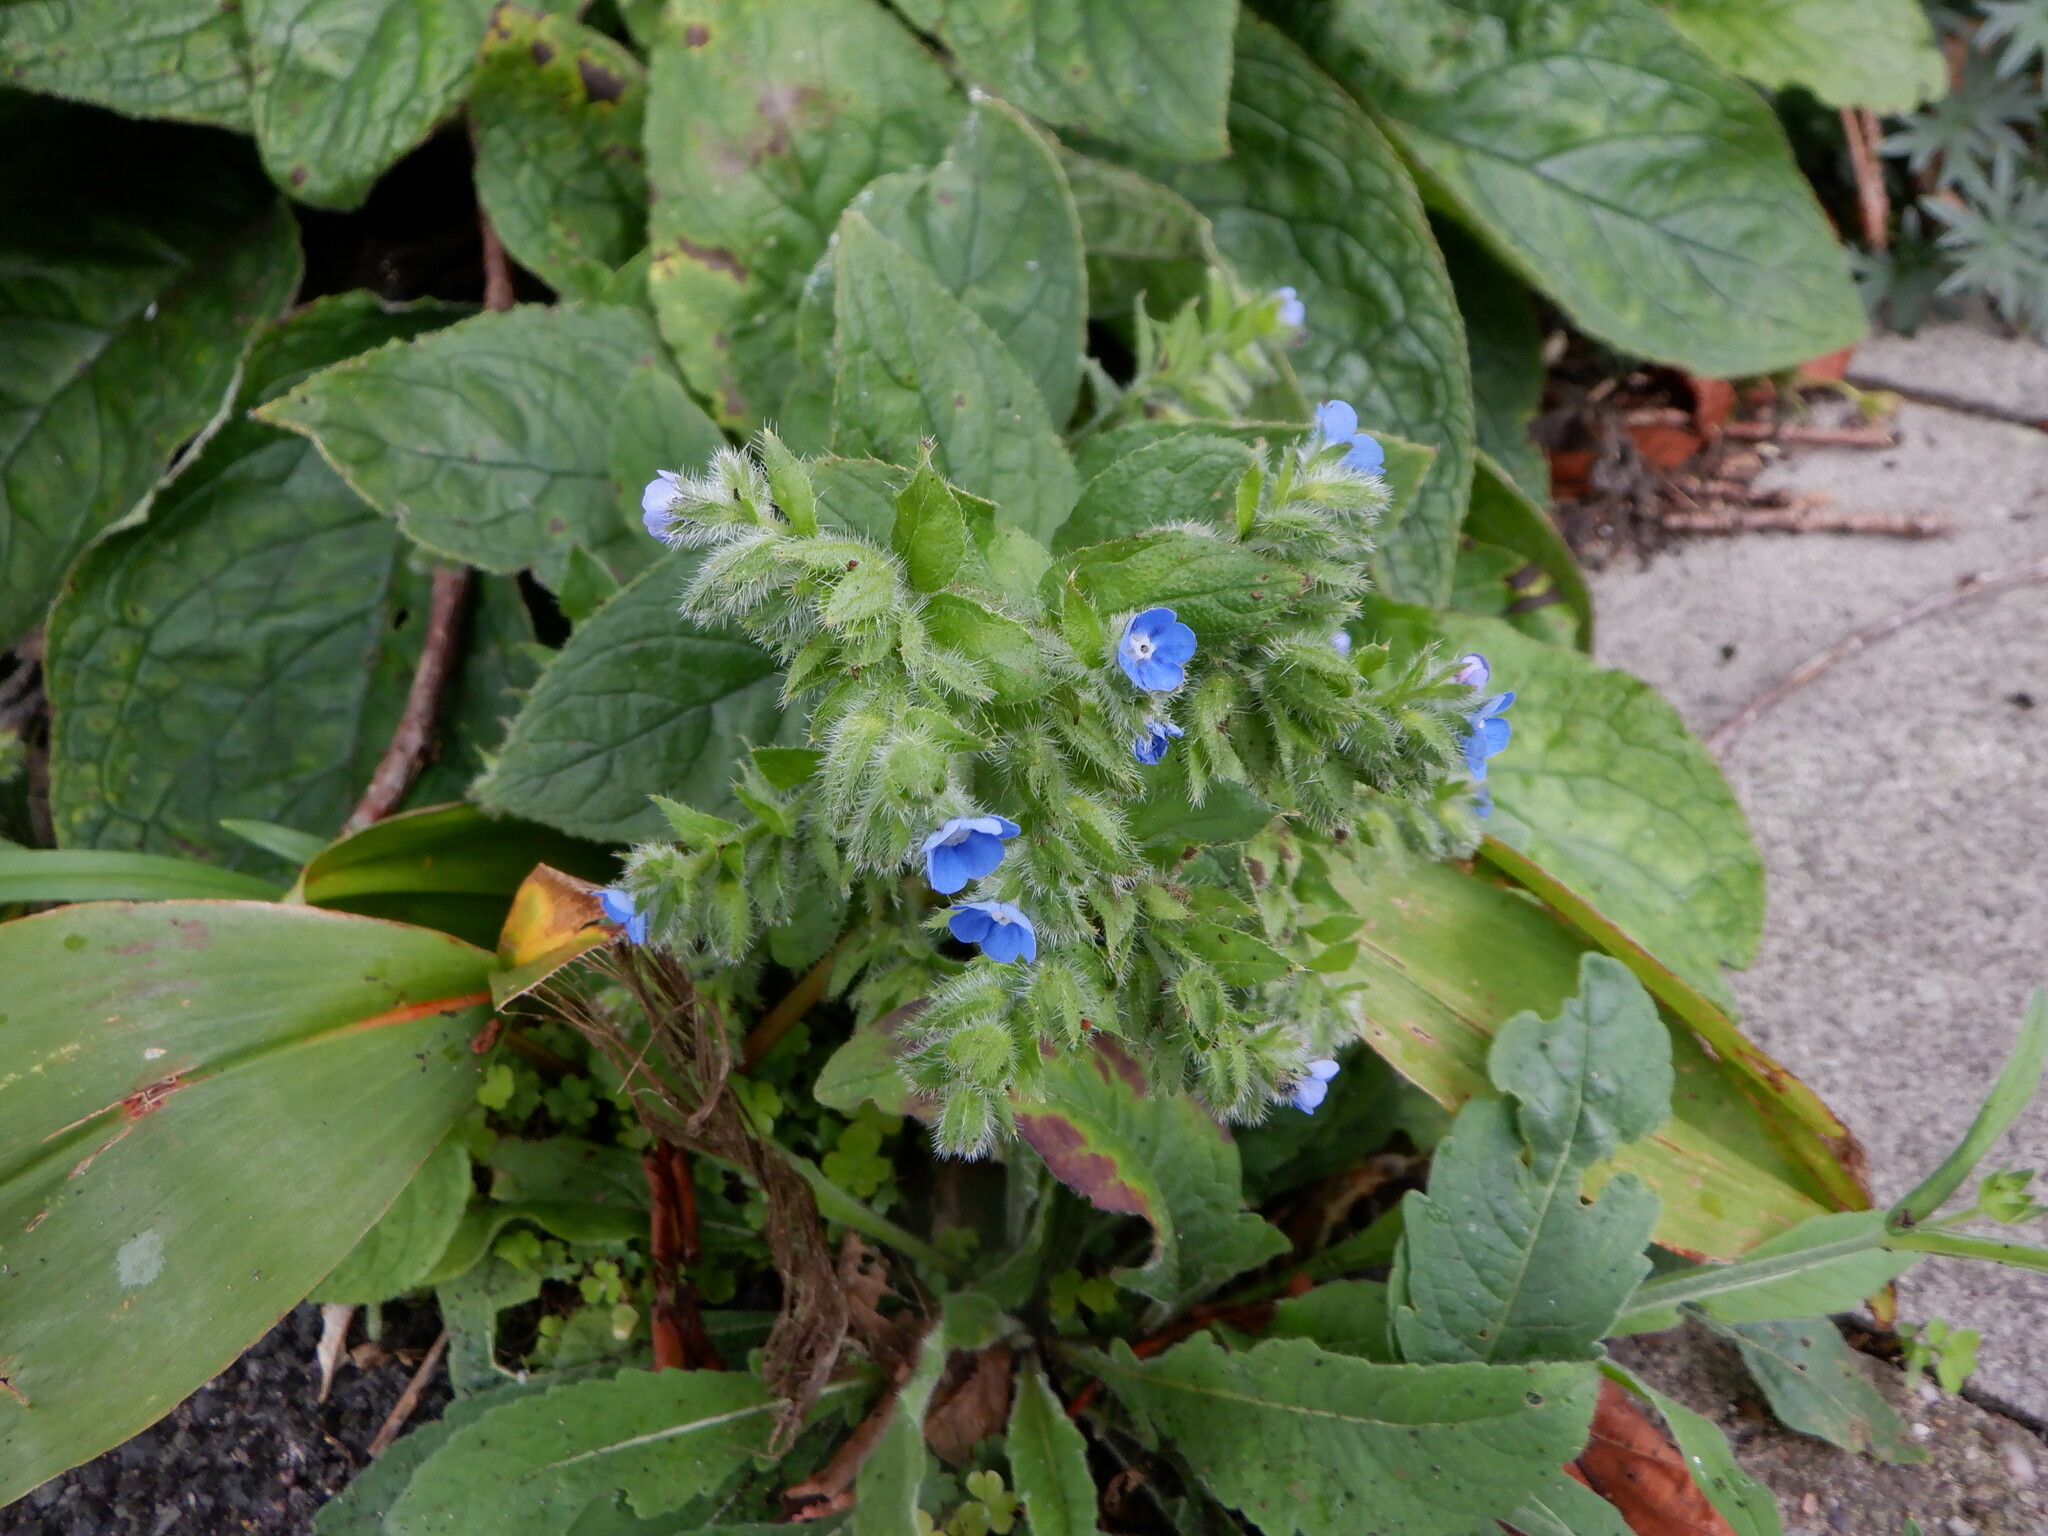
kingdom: Plantae
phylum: Tracheophyta
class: Magnoliopsida
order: Boraginales
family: Boraginaceae
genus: Pentaglottis
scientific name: Pentaglottis sempervirens
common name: Green alkanet
